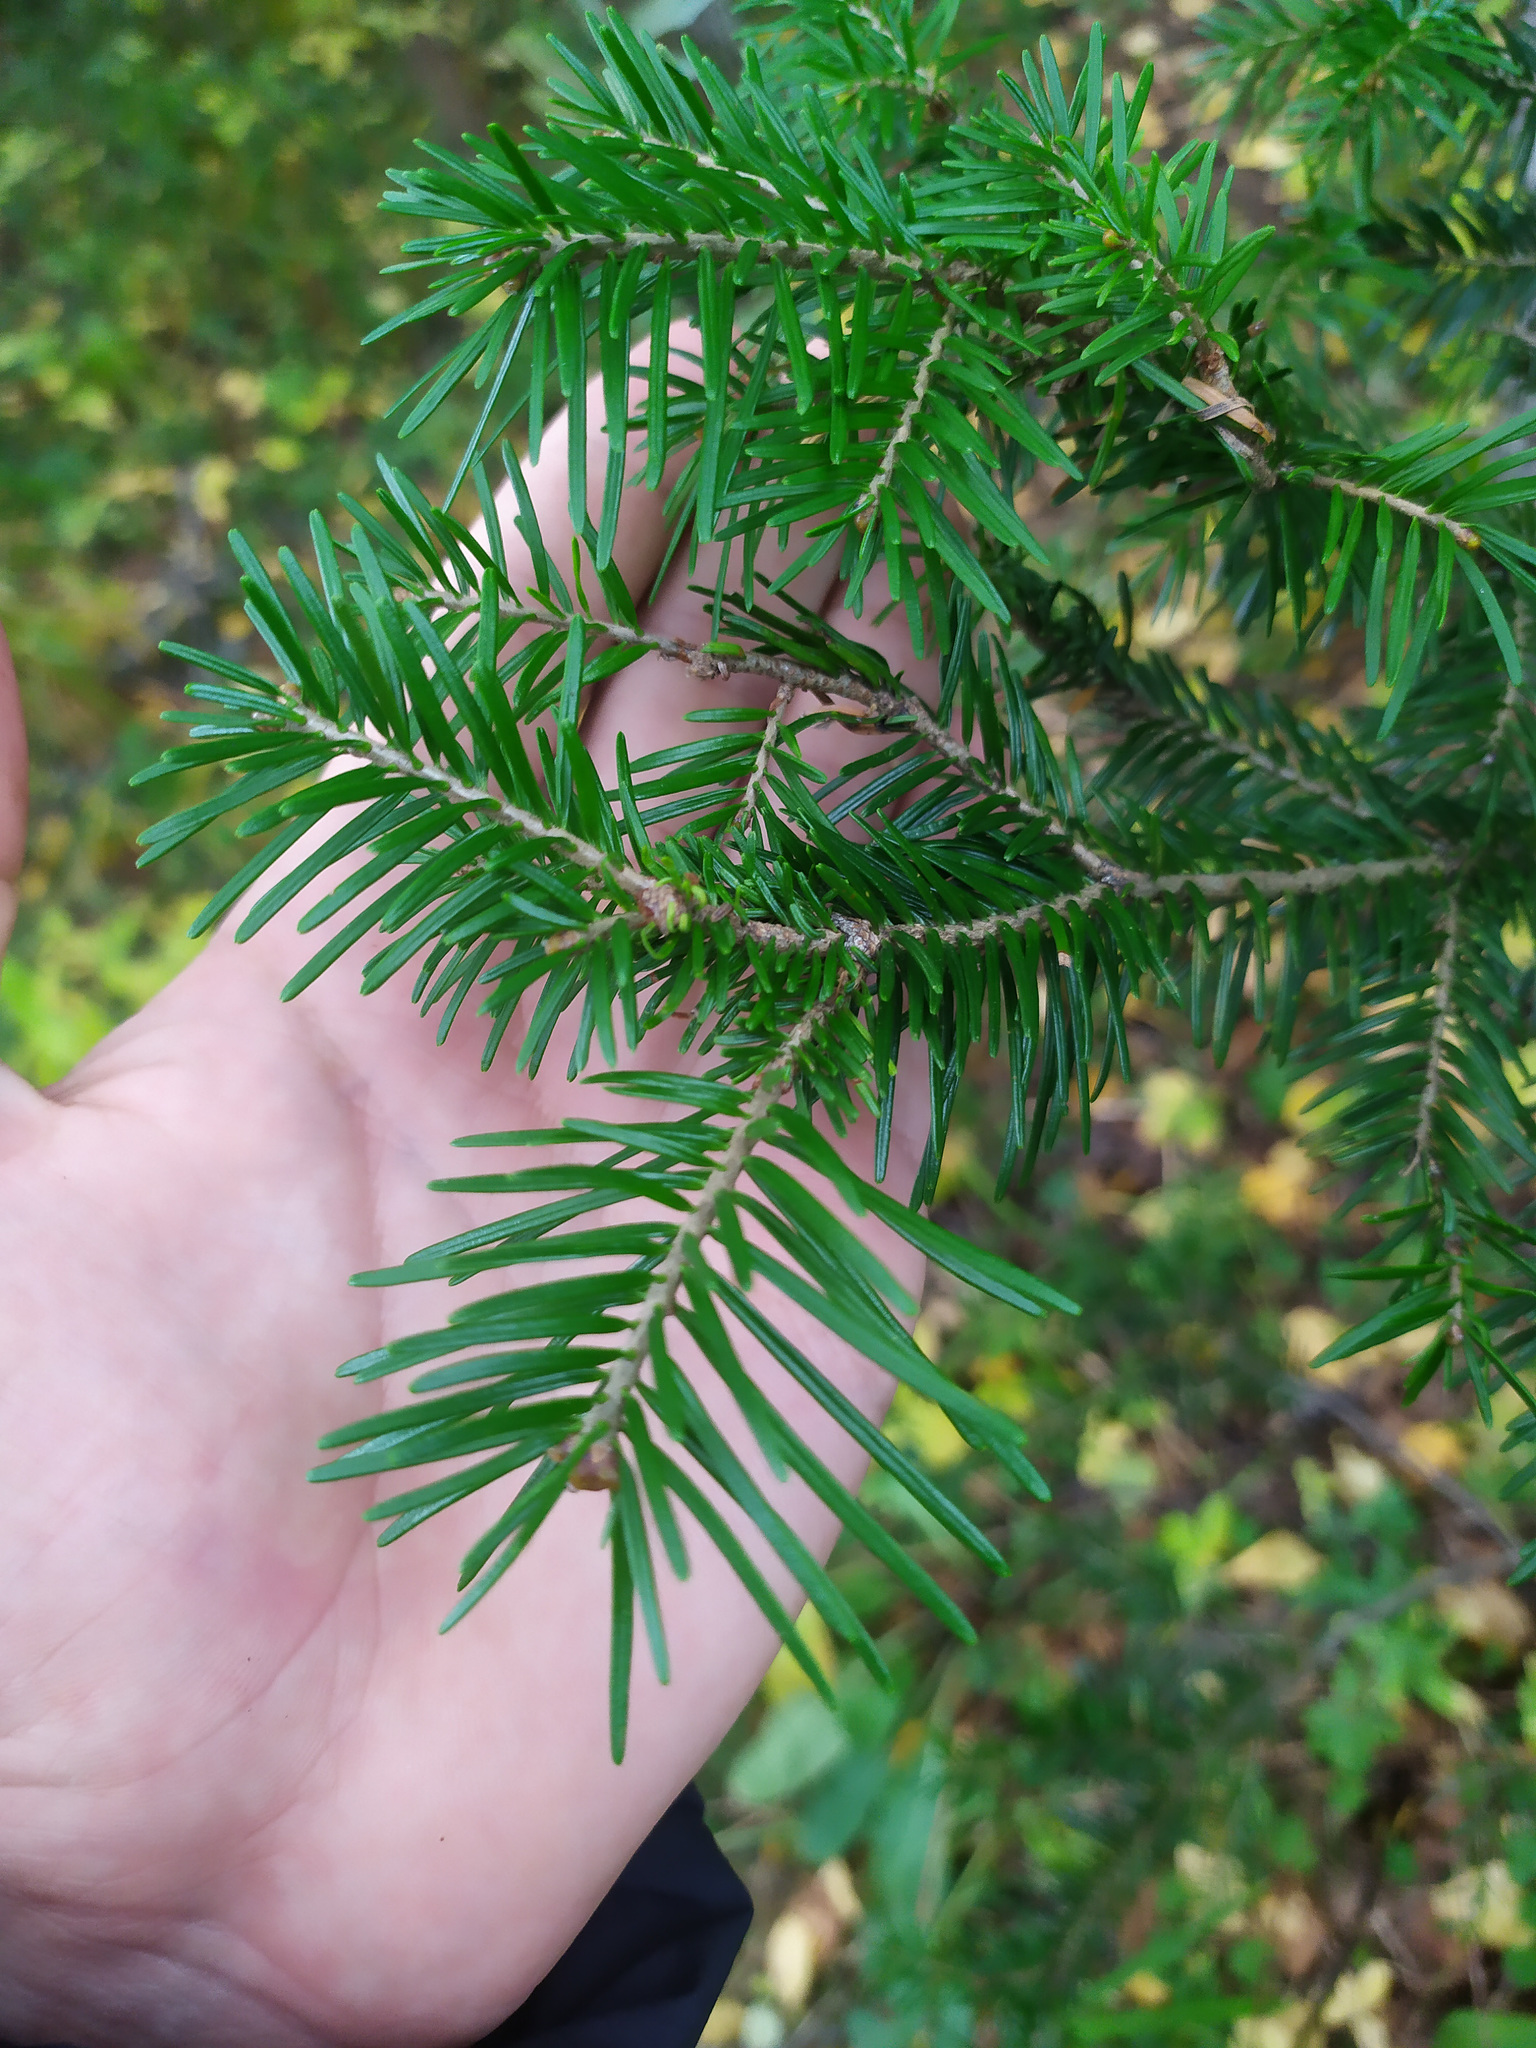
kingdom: Plantae
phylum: Tracheophyta
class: Pinopsida
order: Pinales
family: Pinaceae
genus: Abies
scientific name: Abies sibirica
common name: Siberian fir
